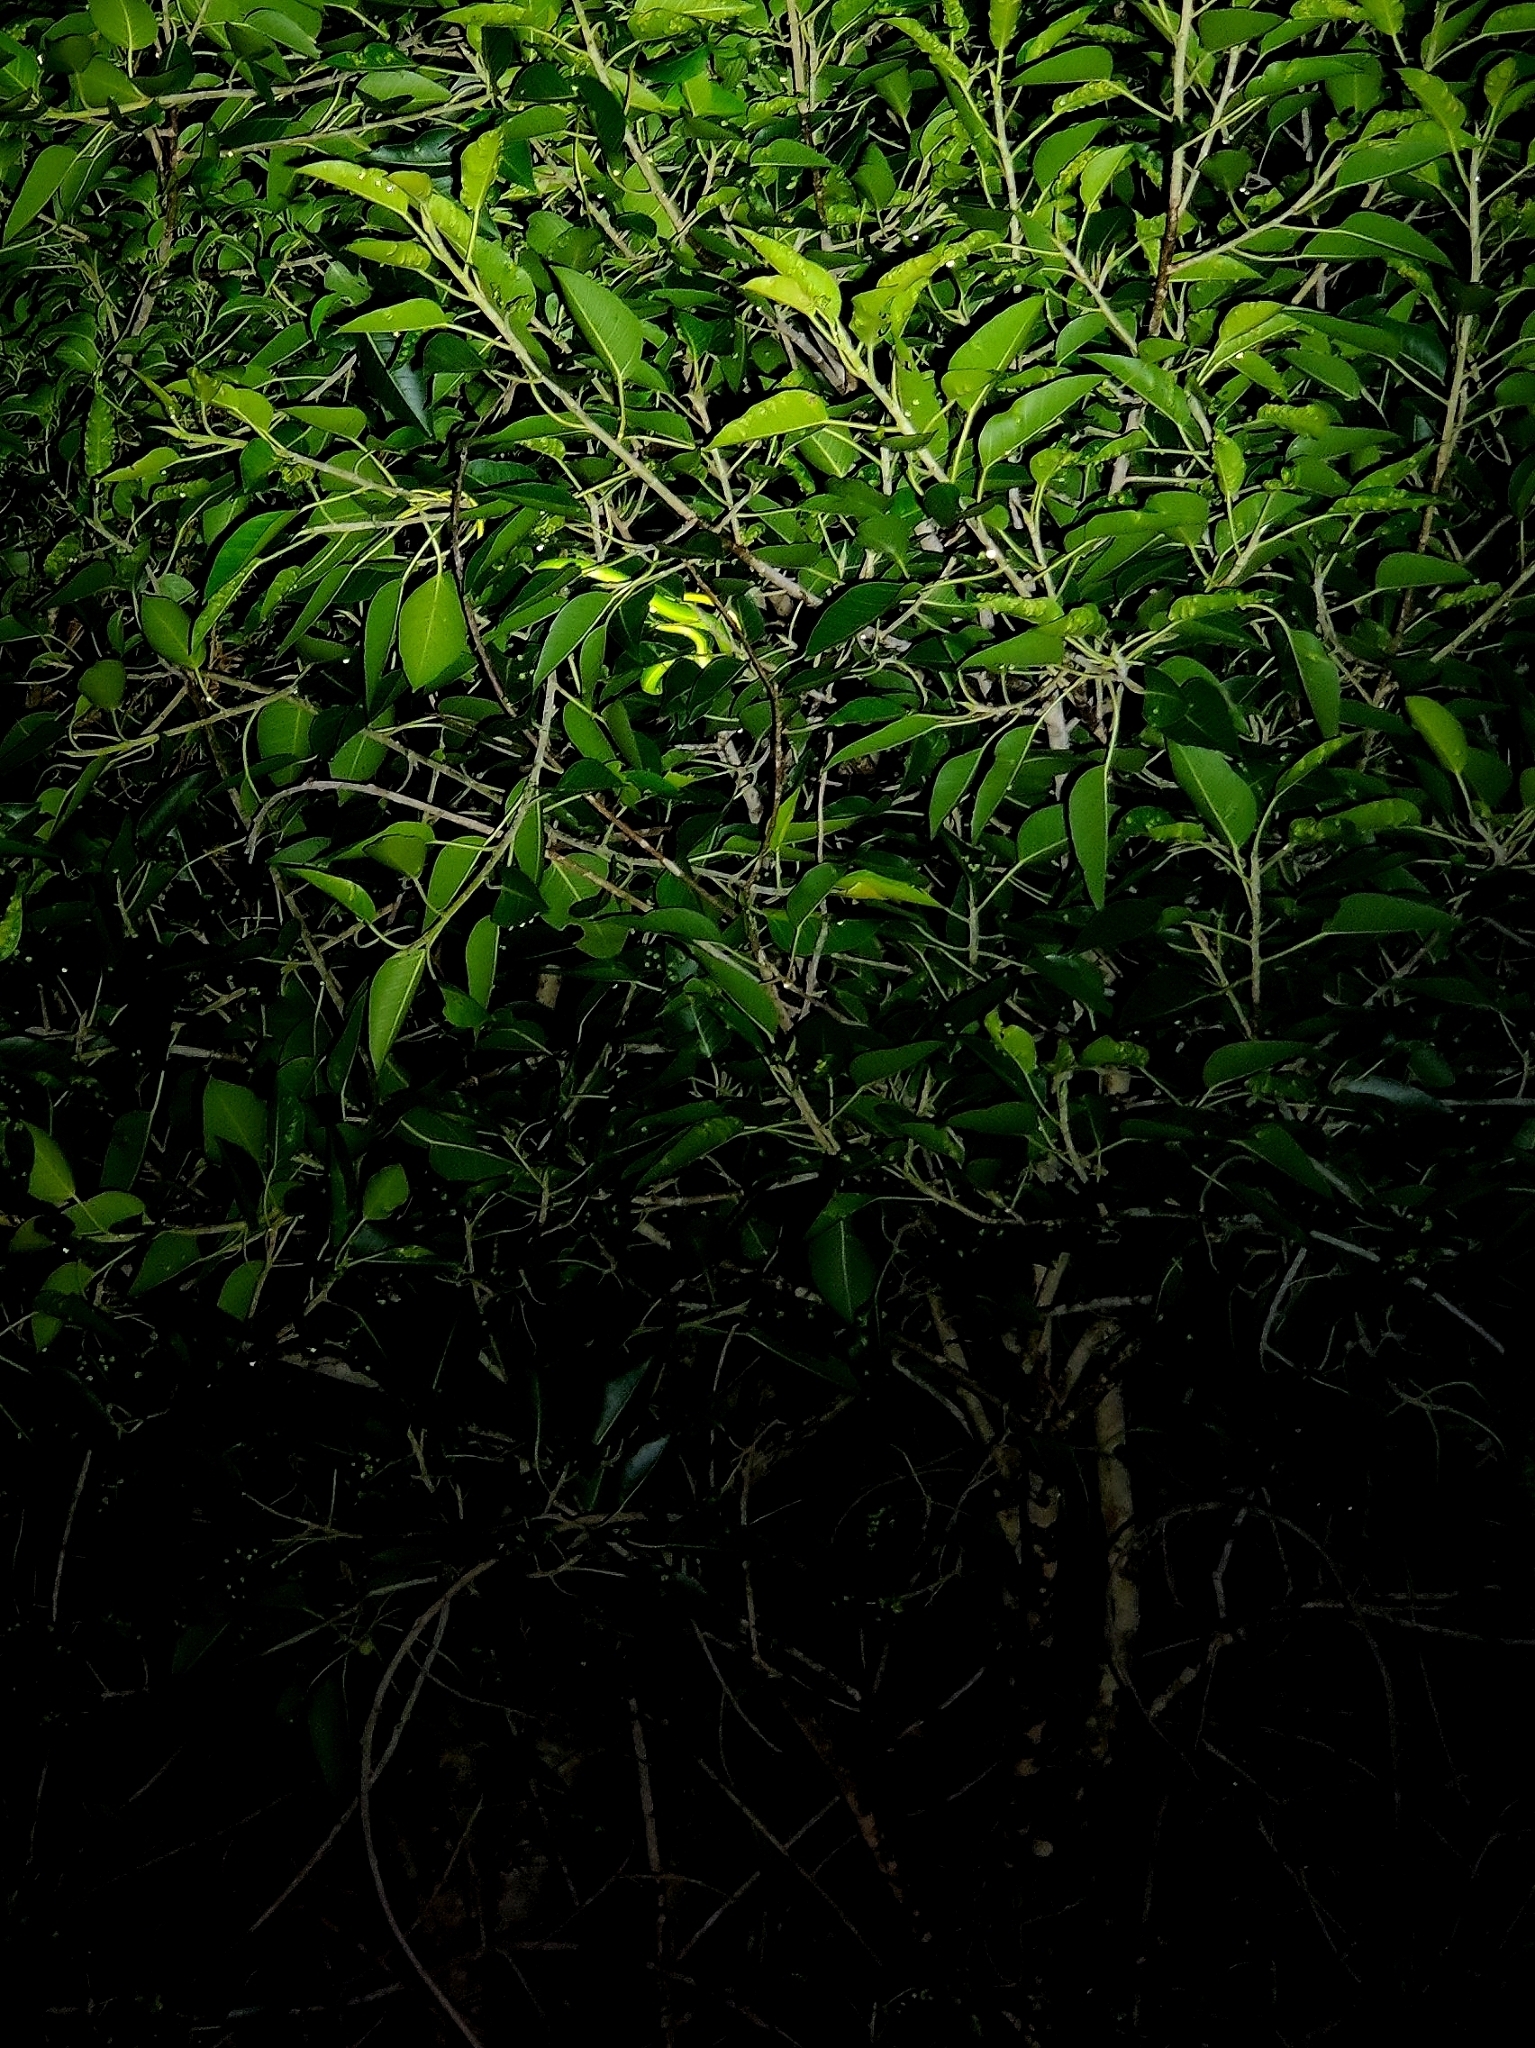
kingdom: Animalia
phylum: Chordata
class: Squamata
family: Colubridae
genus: Ahaetulla
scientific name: Ahaetulla oxyrhyncha
